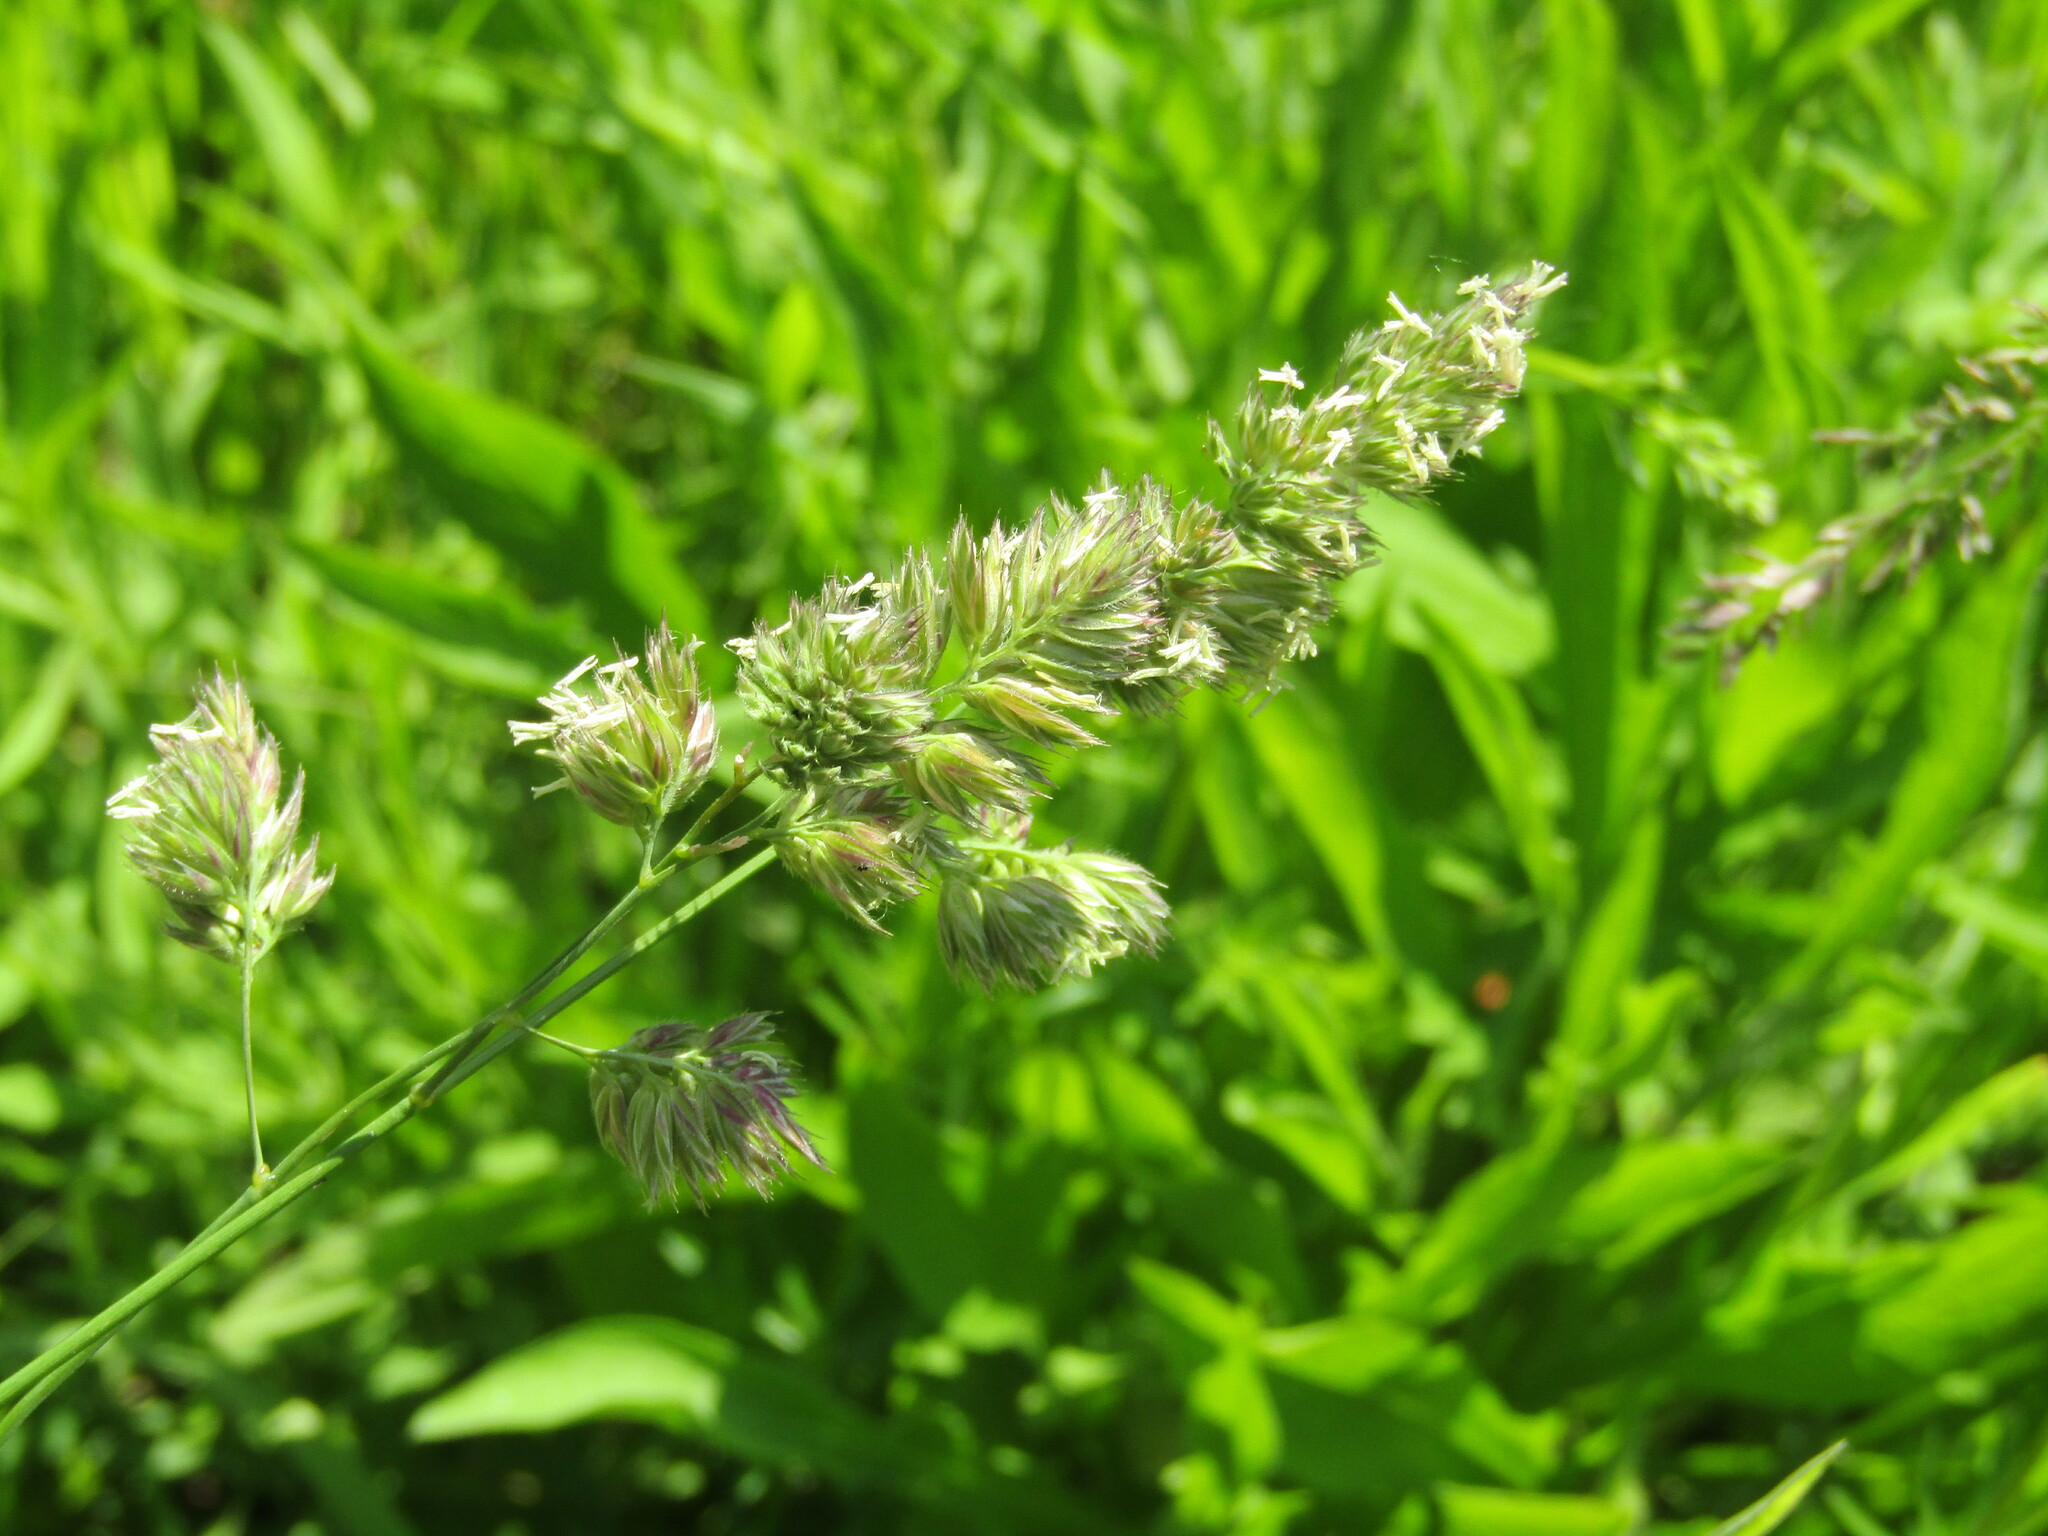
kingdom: Plantae
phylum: Tracheophyta
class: Liliopsida
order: Poales
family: Poaceae
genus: Dactylis
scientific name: Dactylis glomerata
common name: Orchardgrass
